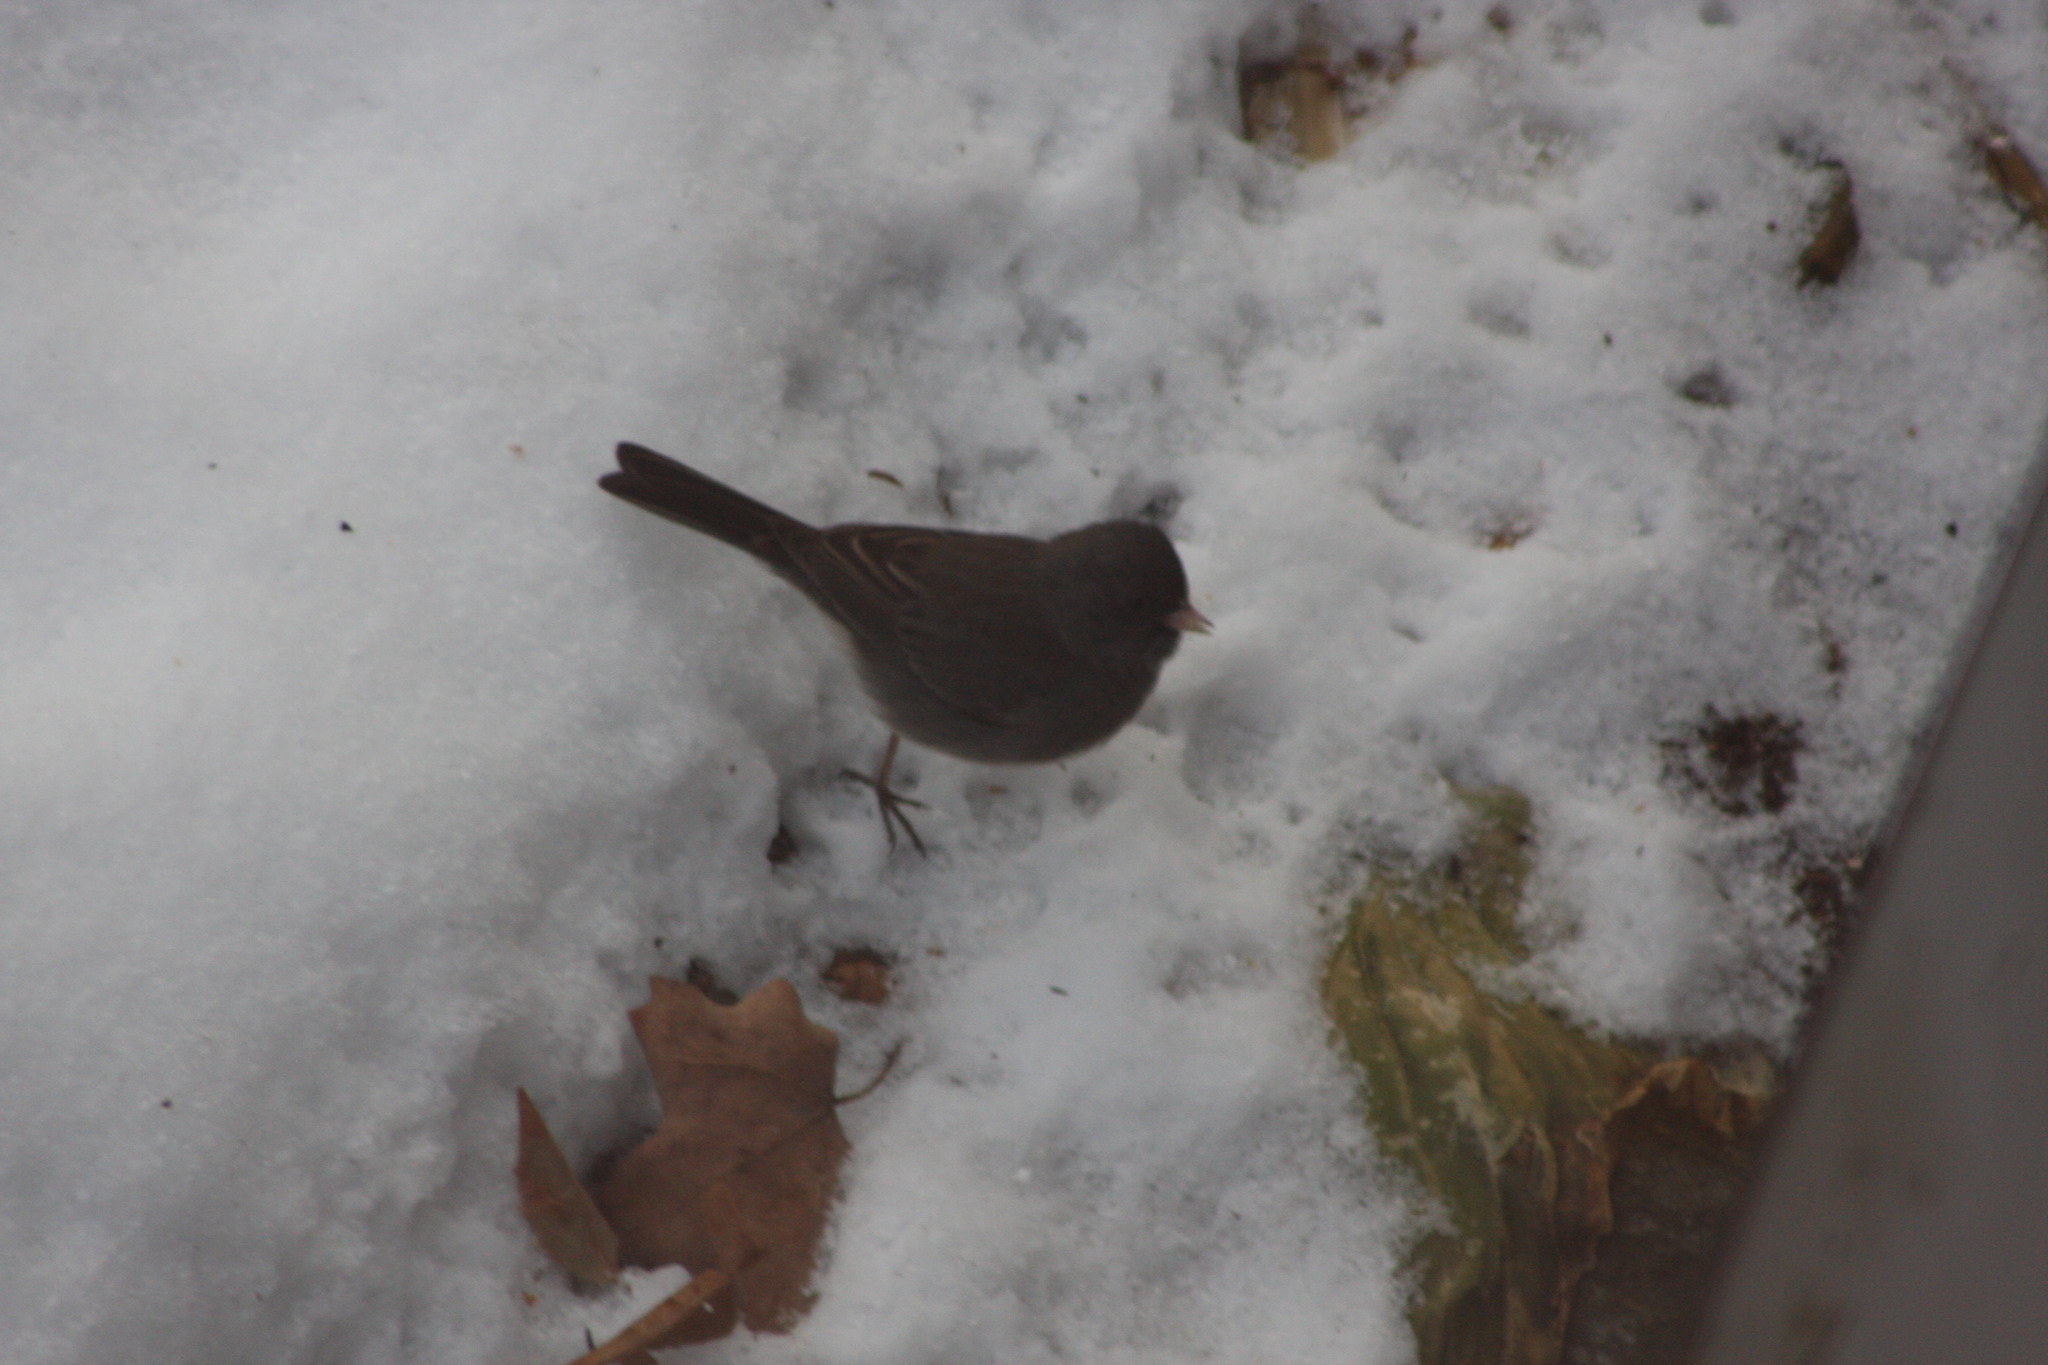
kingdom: Animalia
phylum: Chordata
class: Aves
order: Passeriformes
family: Passerellidae
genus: Junco
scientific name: Junco hyemalis
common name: Dark-eyed junco
